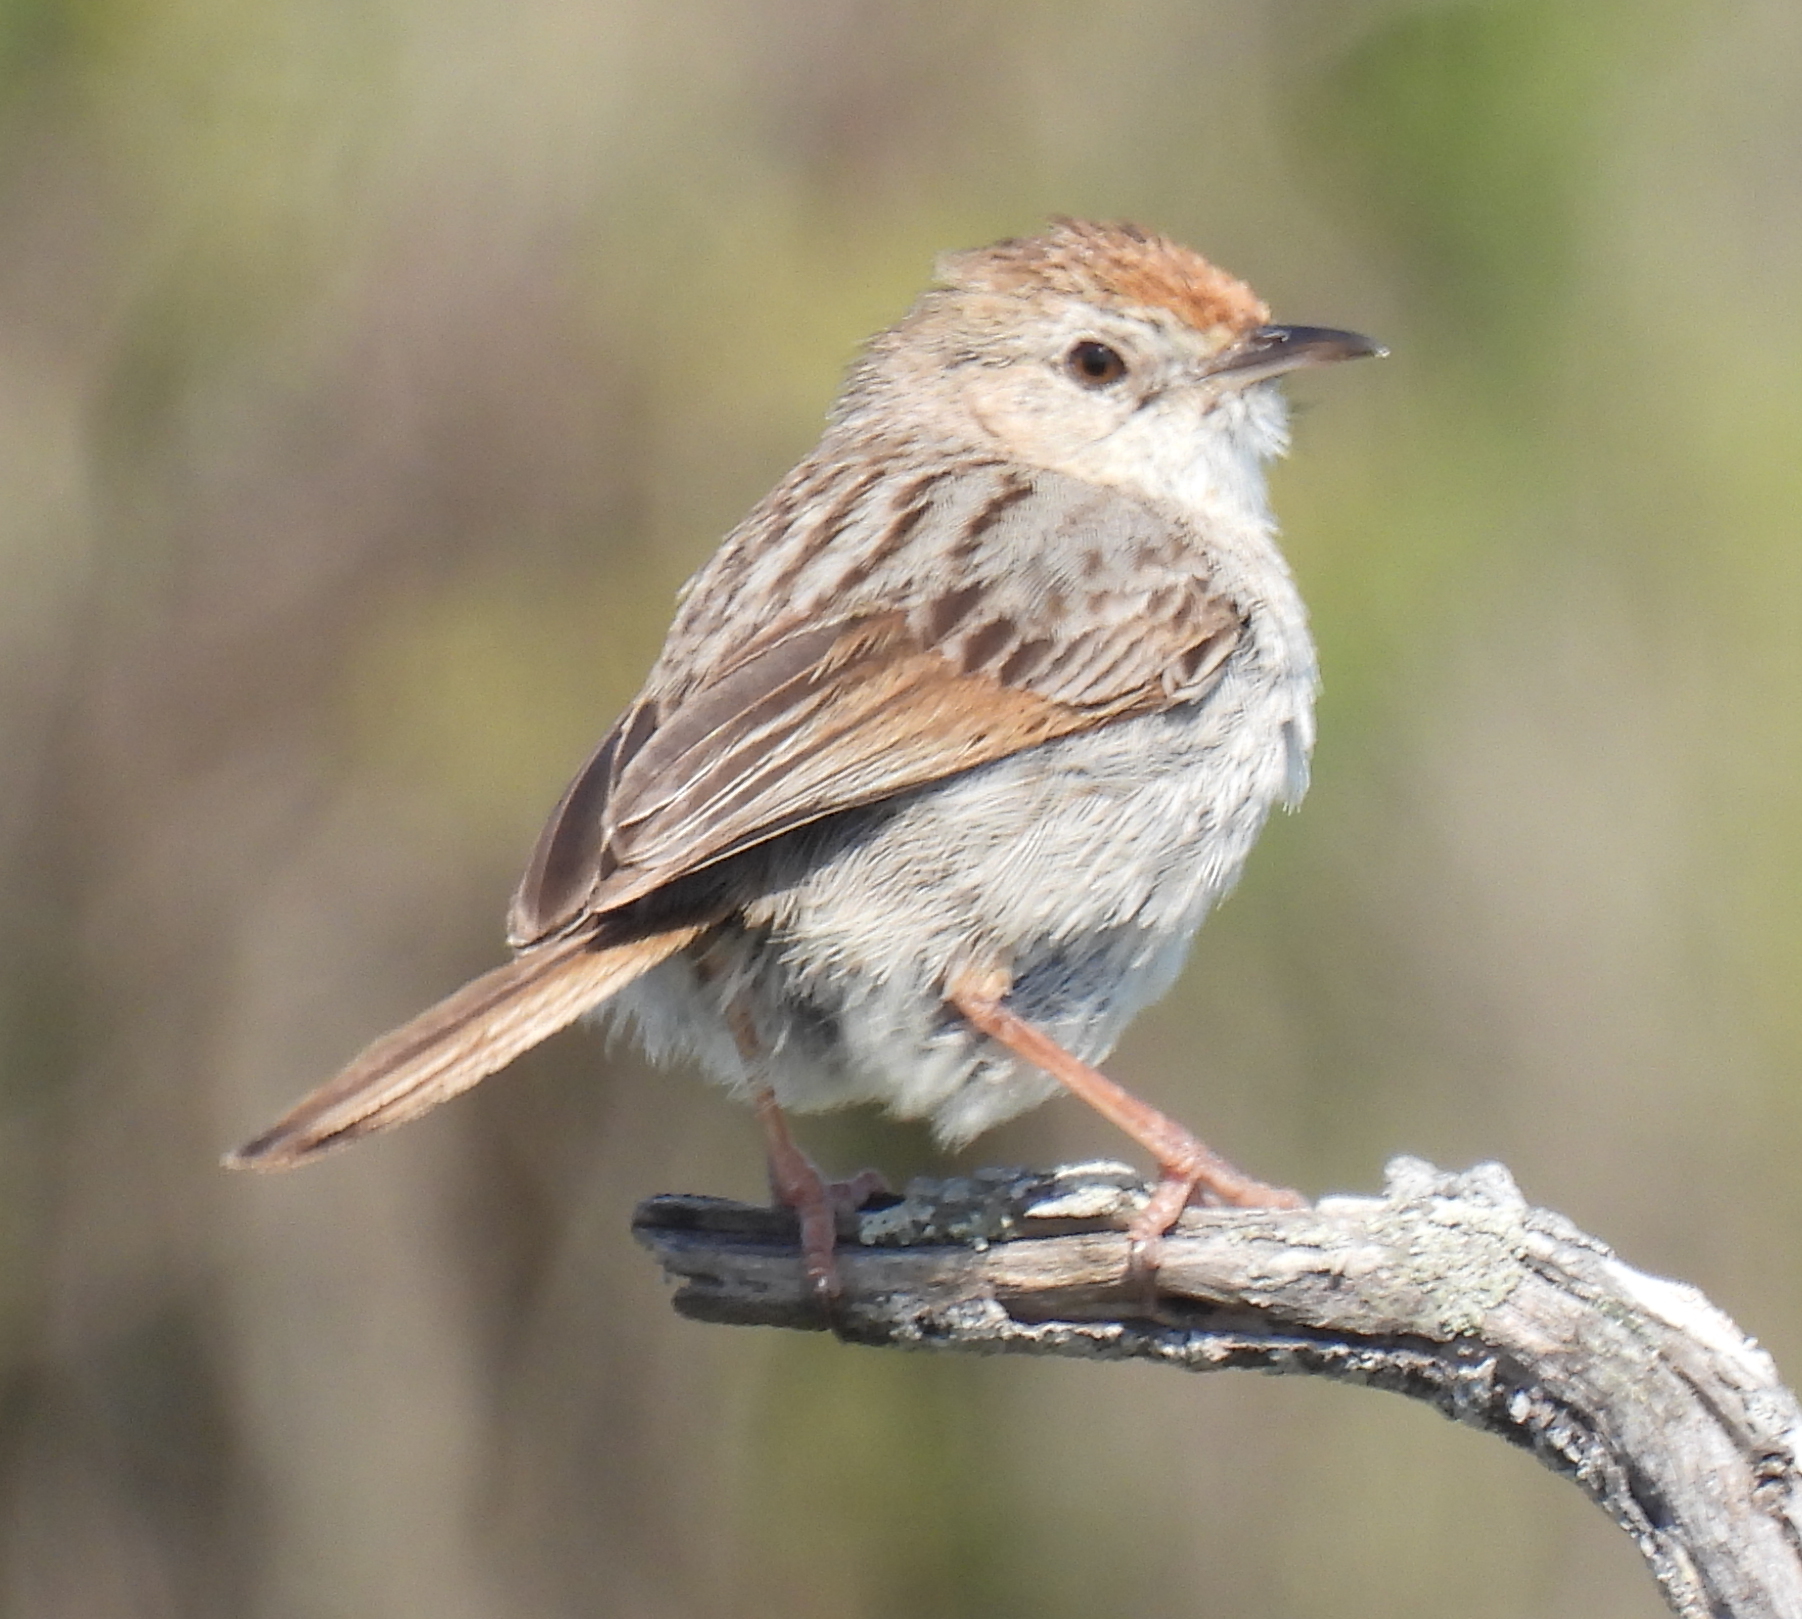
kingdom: Animalia
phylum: Chordata
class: Aves
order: Passeriformes
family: Cisticolidae
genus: Cisticola
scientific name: Cisticola subruficapilla
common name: Grey-backed cisticola
